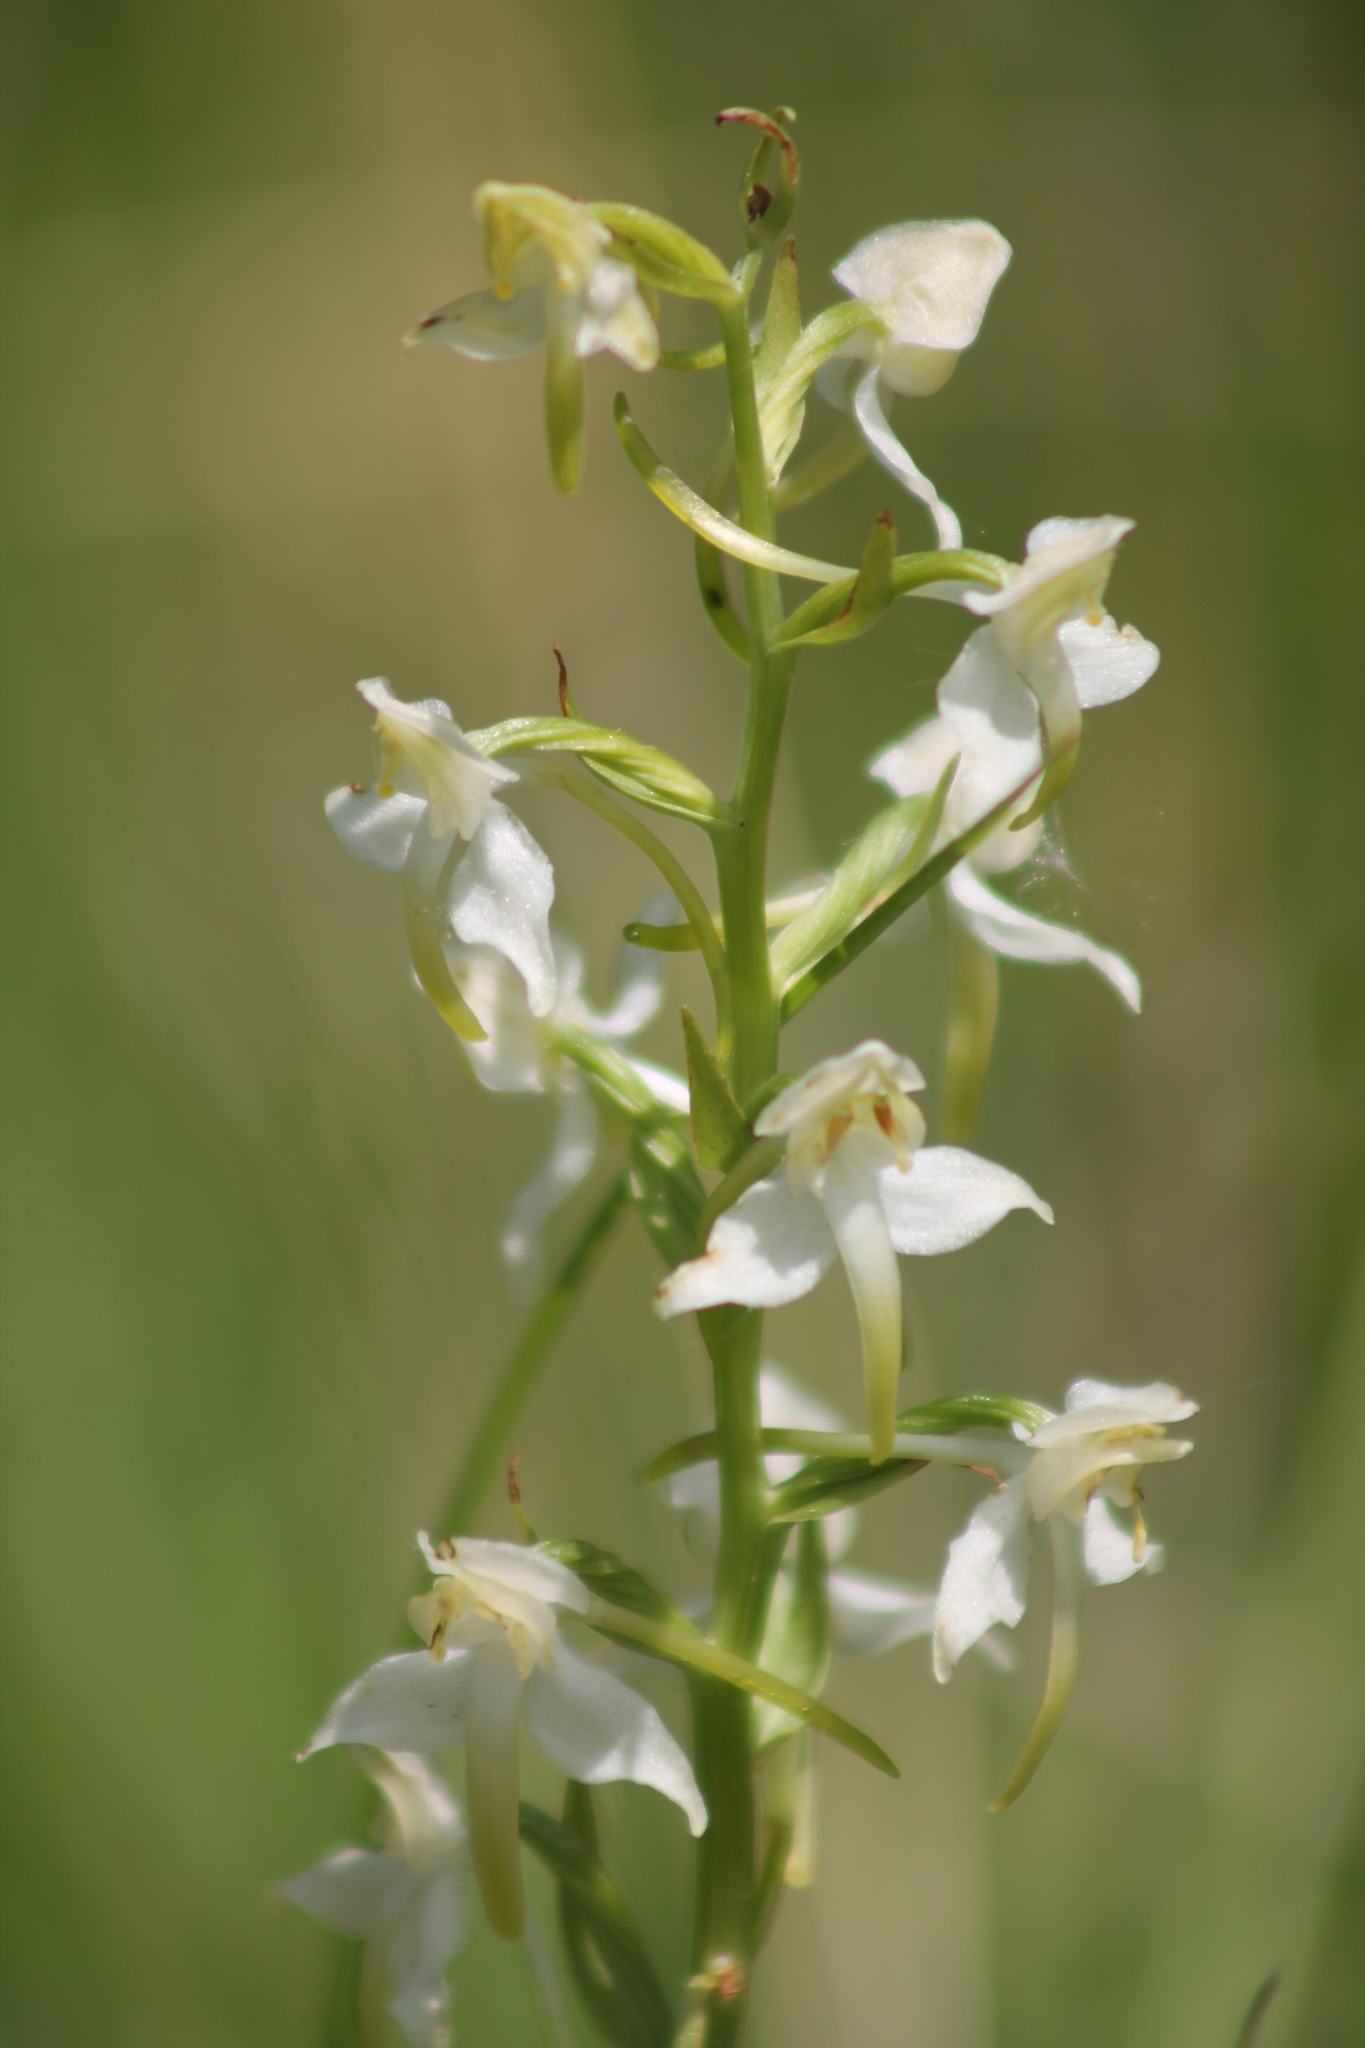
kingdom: Plantae
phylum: Tracheophyta
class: Liliopsida
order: Asparagales
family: Orchidaceae
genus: Platanthera
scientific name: Platanthera chlorantha
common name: Greater butterfly-orchid
